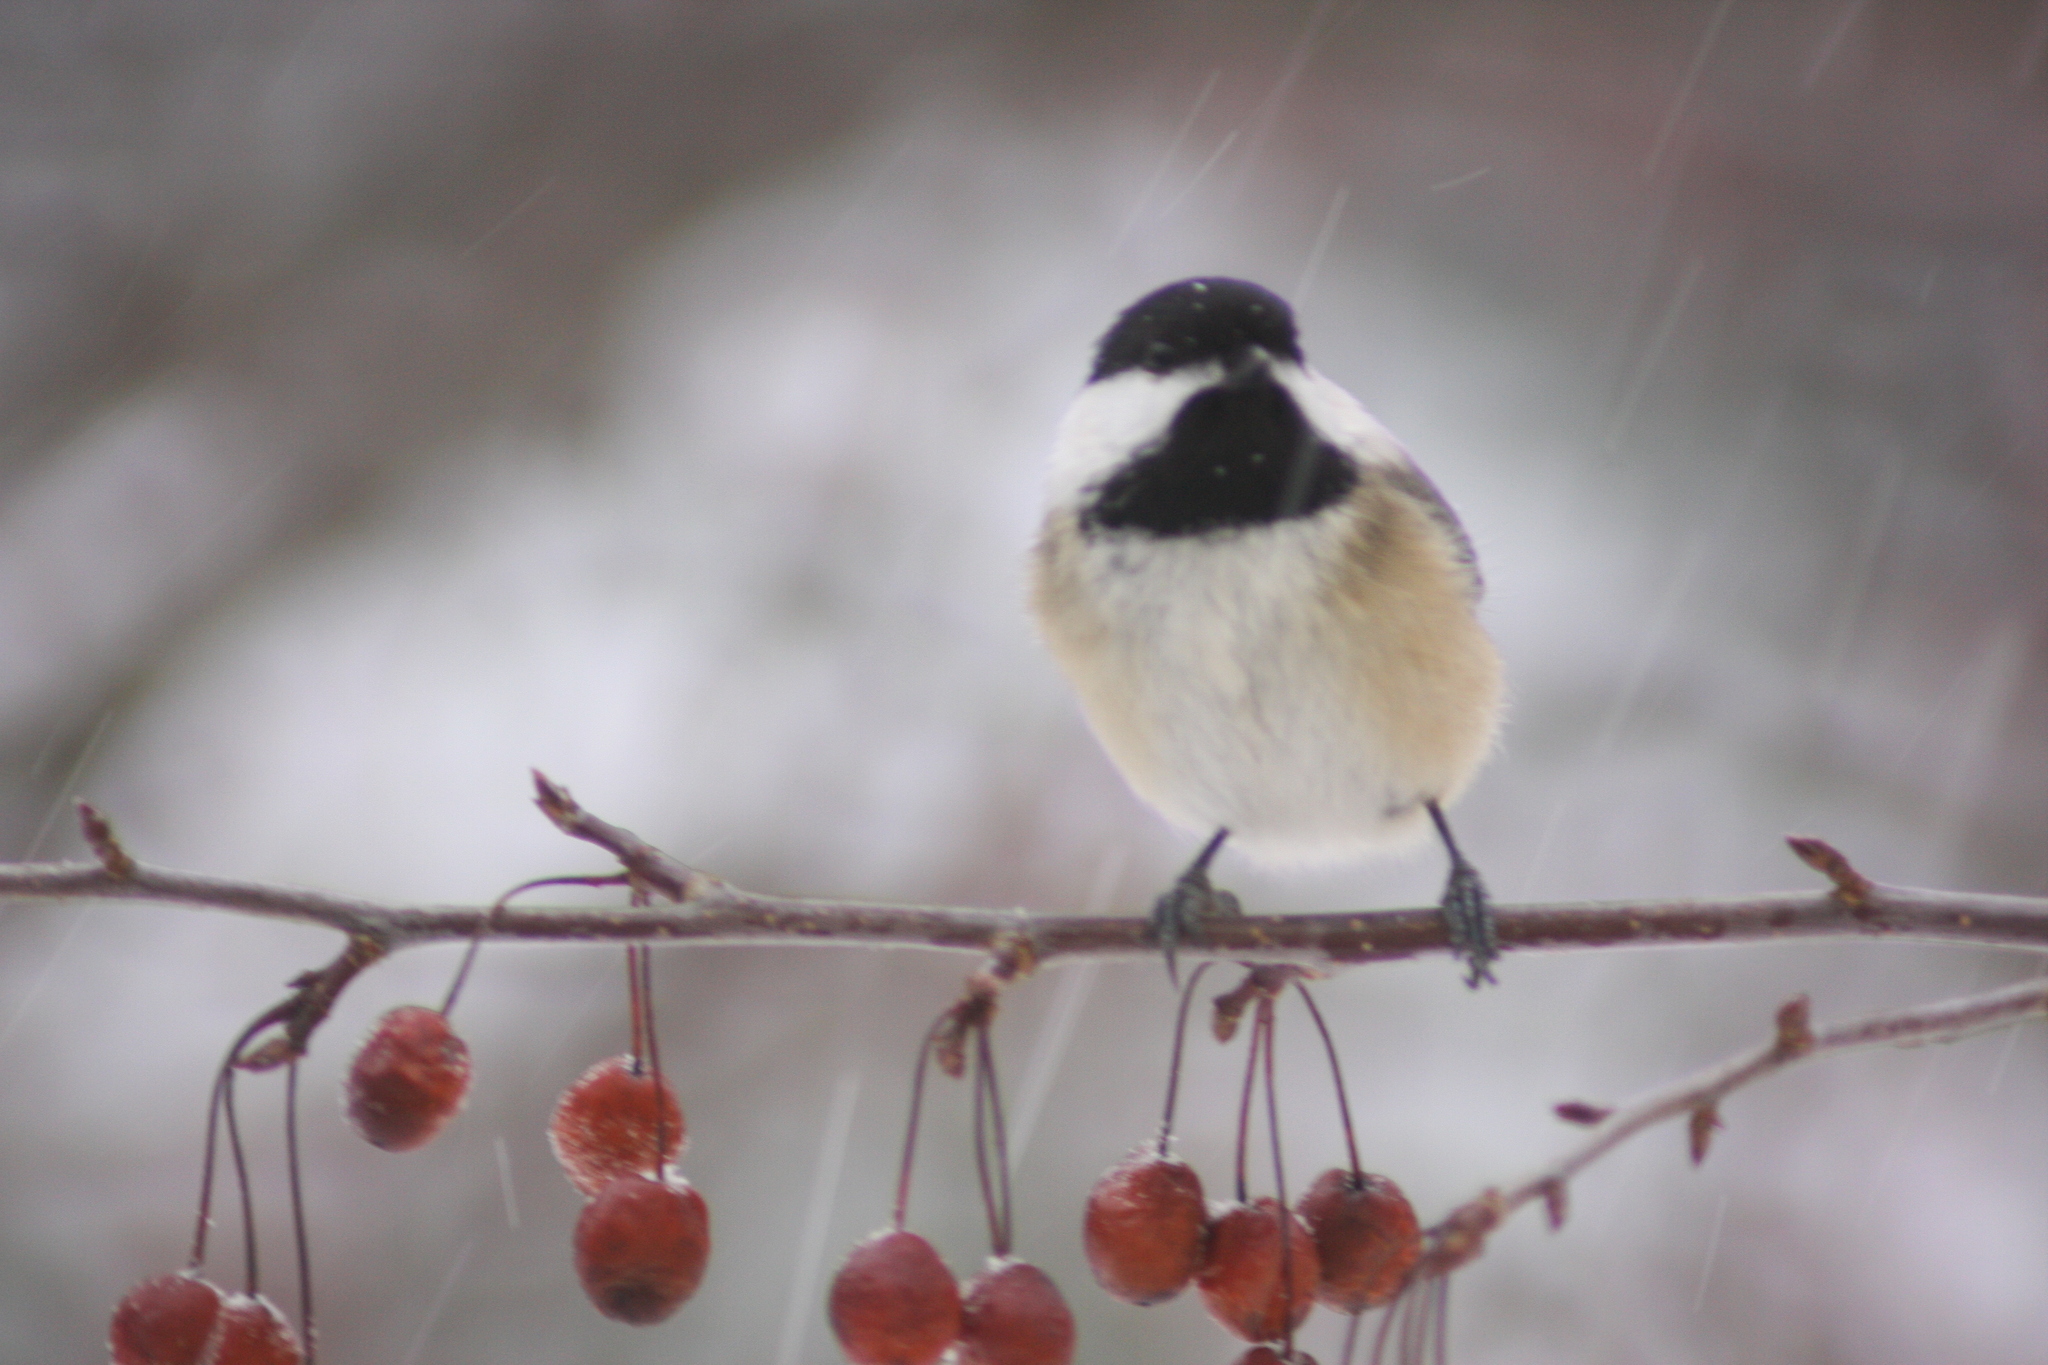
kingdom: Animalia
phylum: Chordata
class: Aves
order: Passeriformes
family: Paridae
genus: Poecile
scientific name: Poecile atricapillus
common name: Black-capped chickadee
